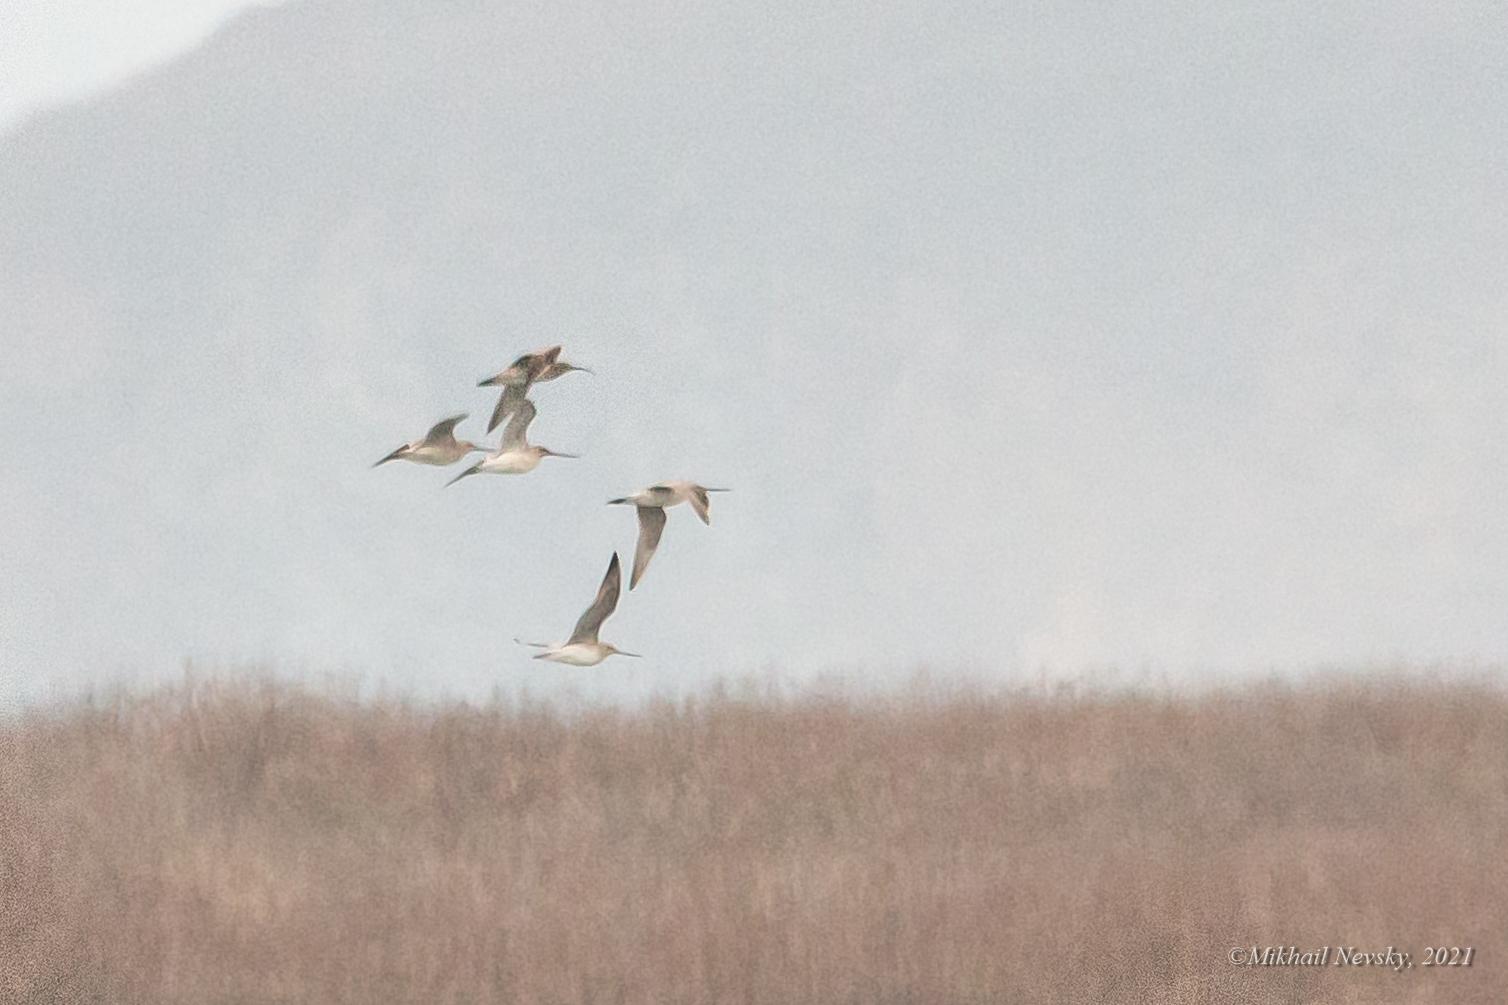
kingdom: Animalia
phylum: Chordata
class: Aves
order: Charadriiformes
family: Scolopacidae
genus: Numenius
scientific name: Numenius phaeopus
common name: Whimbrel
